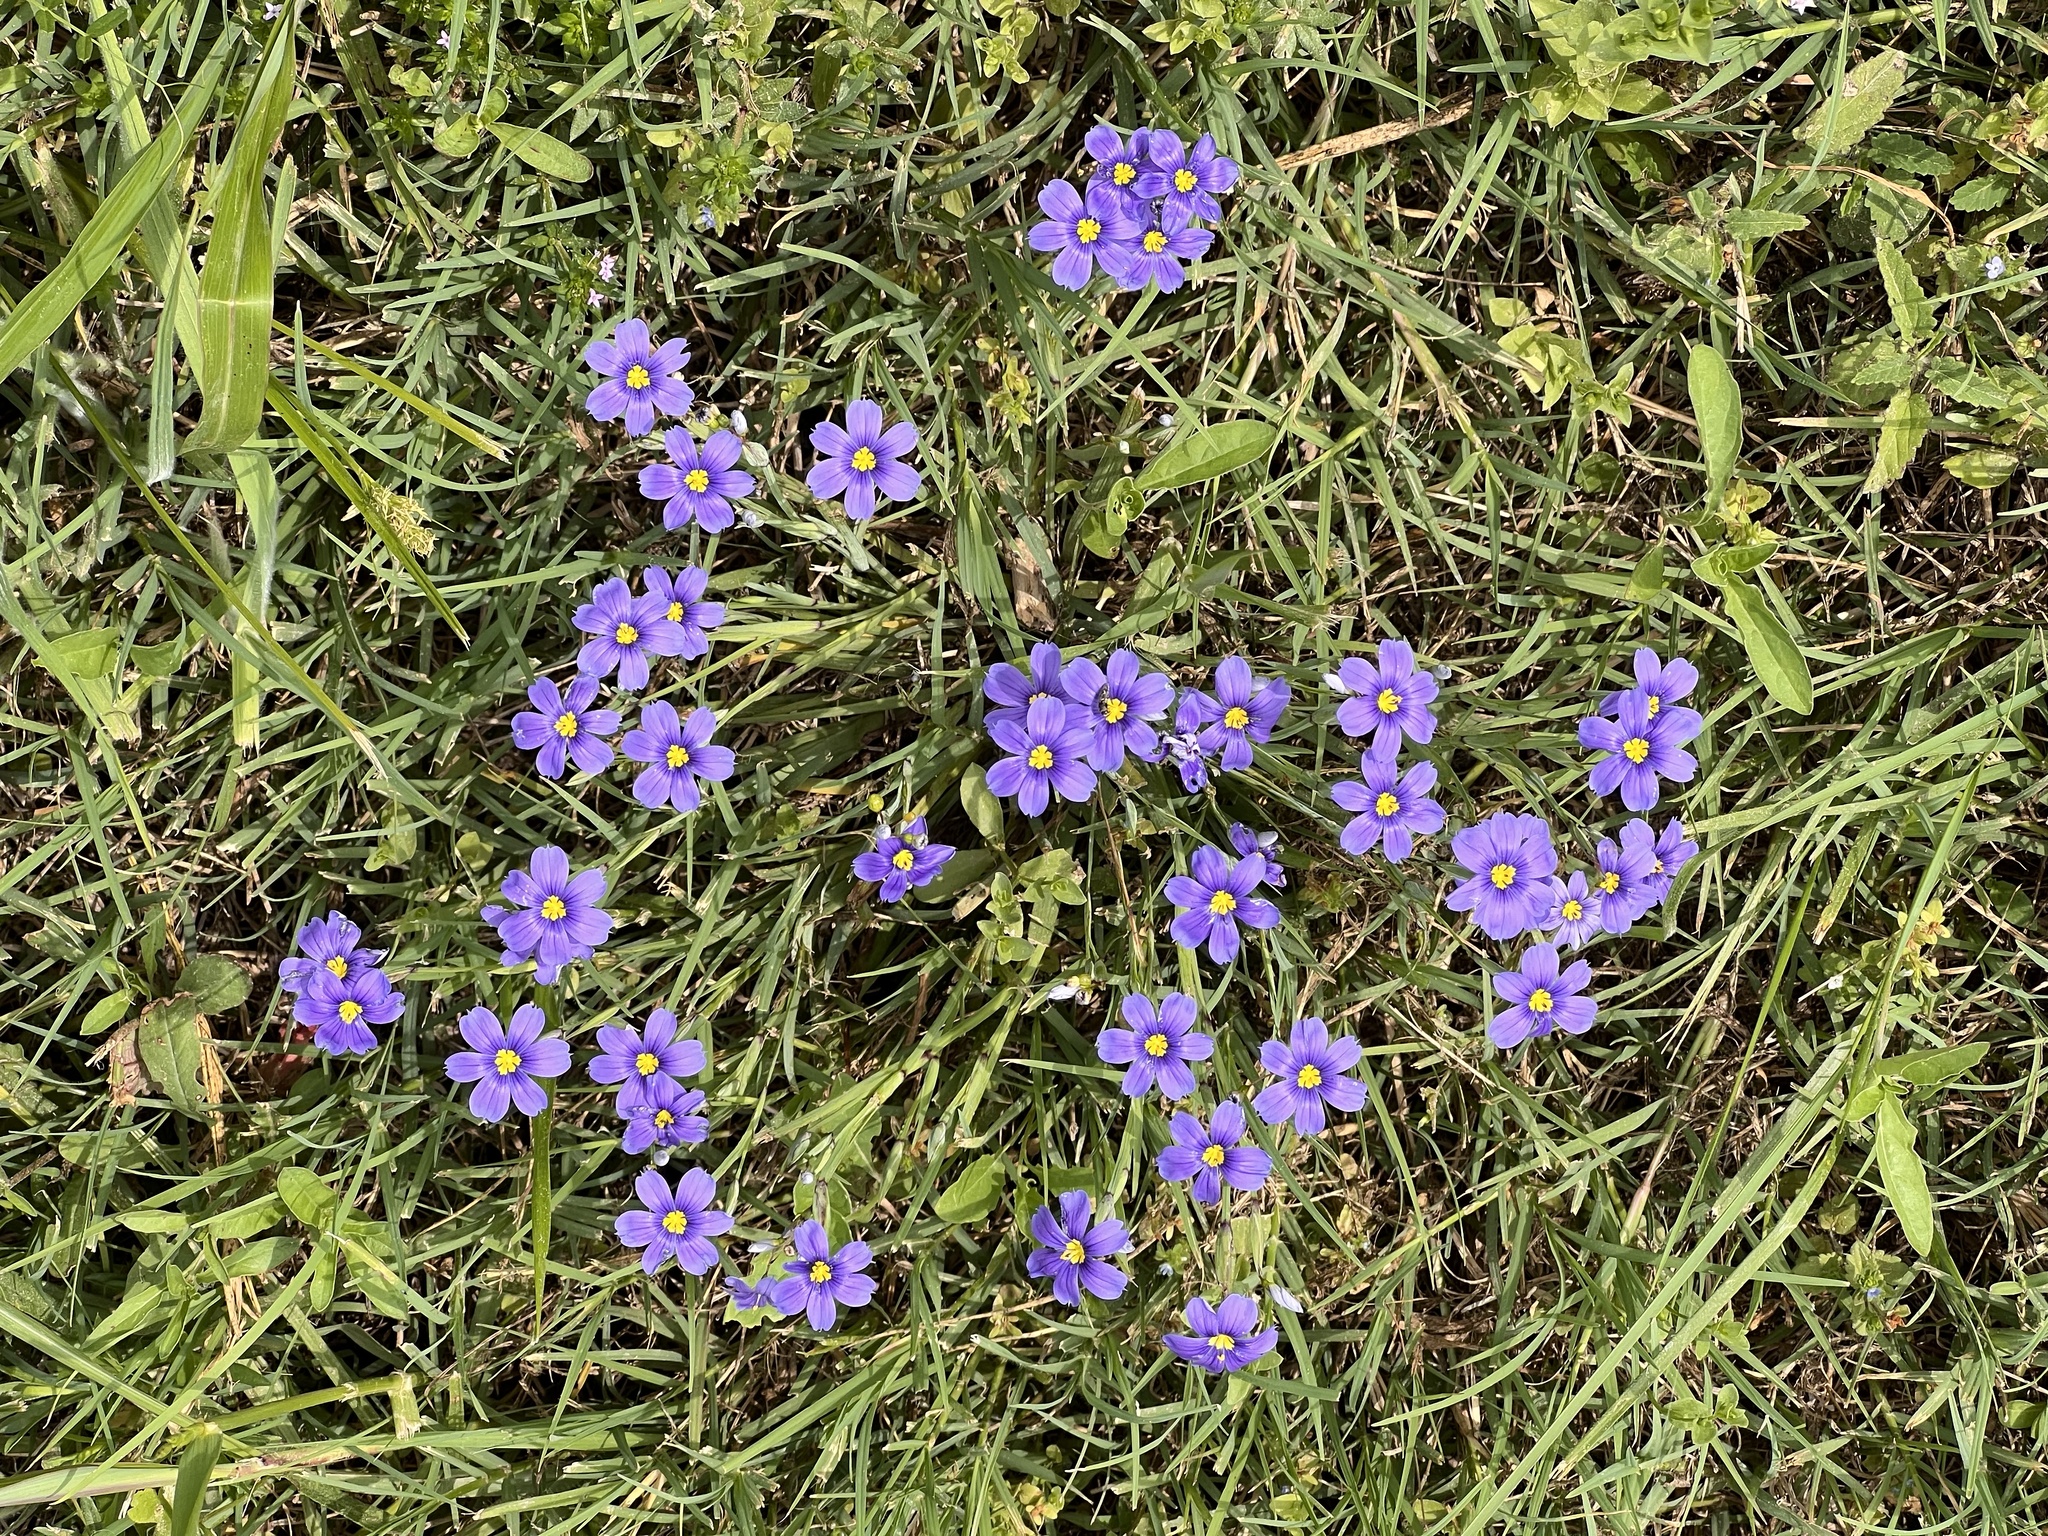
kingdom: Plantae
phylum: Tracheophyta
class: Liliopsida
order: Asparagales
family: Iridaceae
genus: Sisyrinchium
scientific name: Sisyrinchium pruinosum
